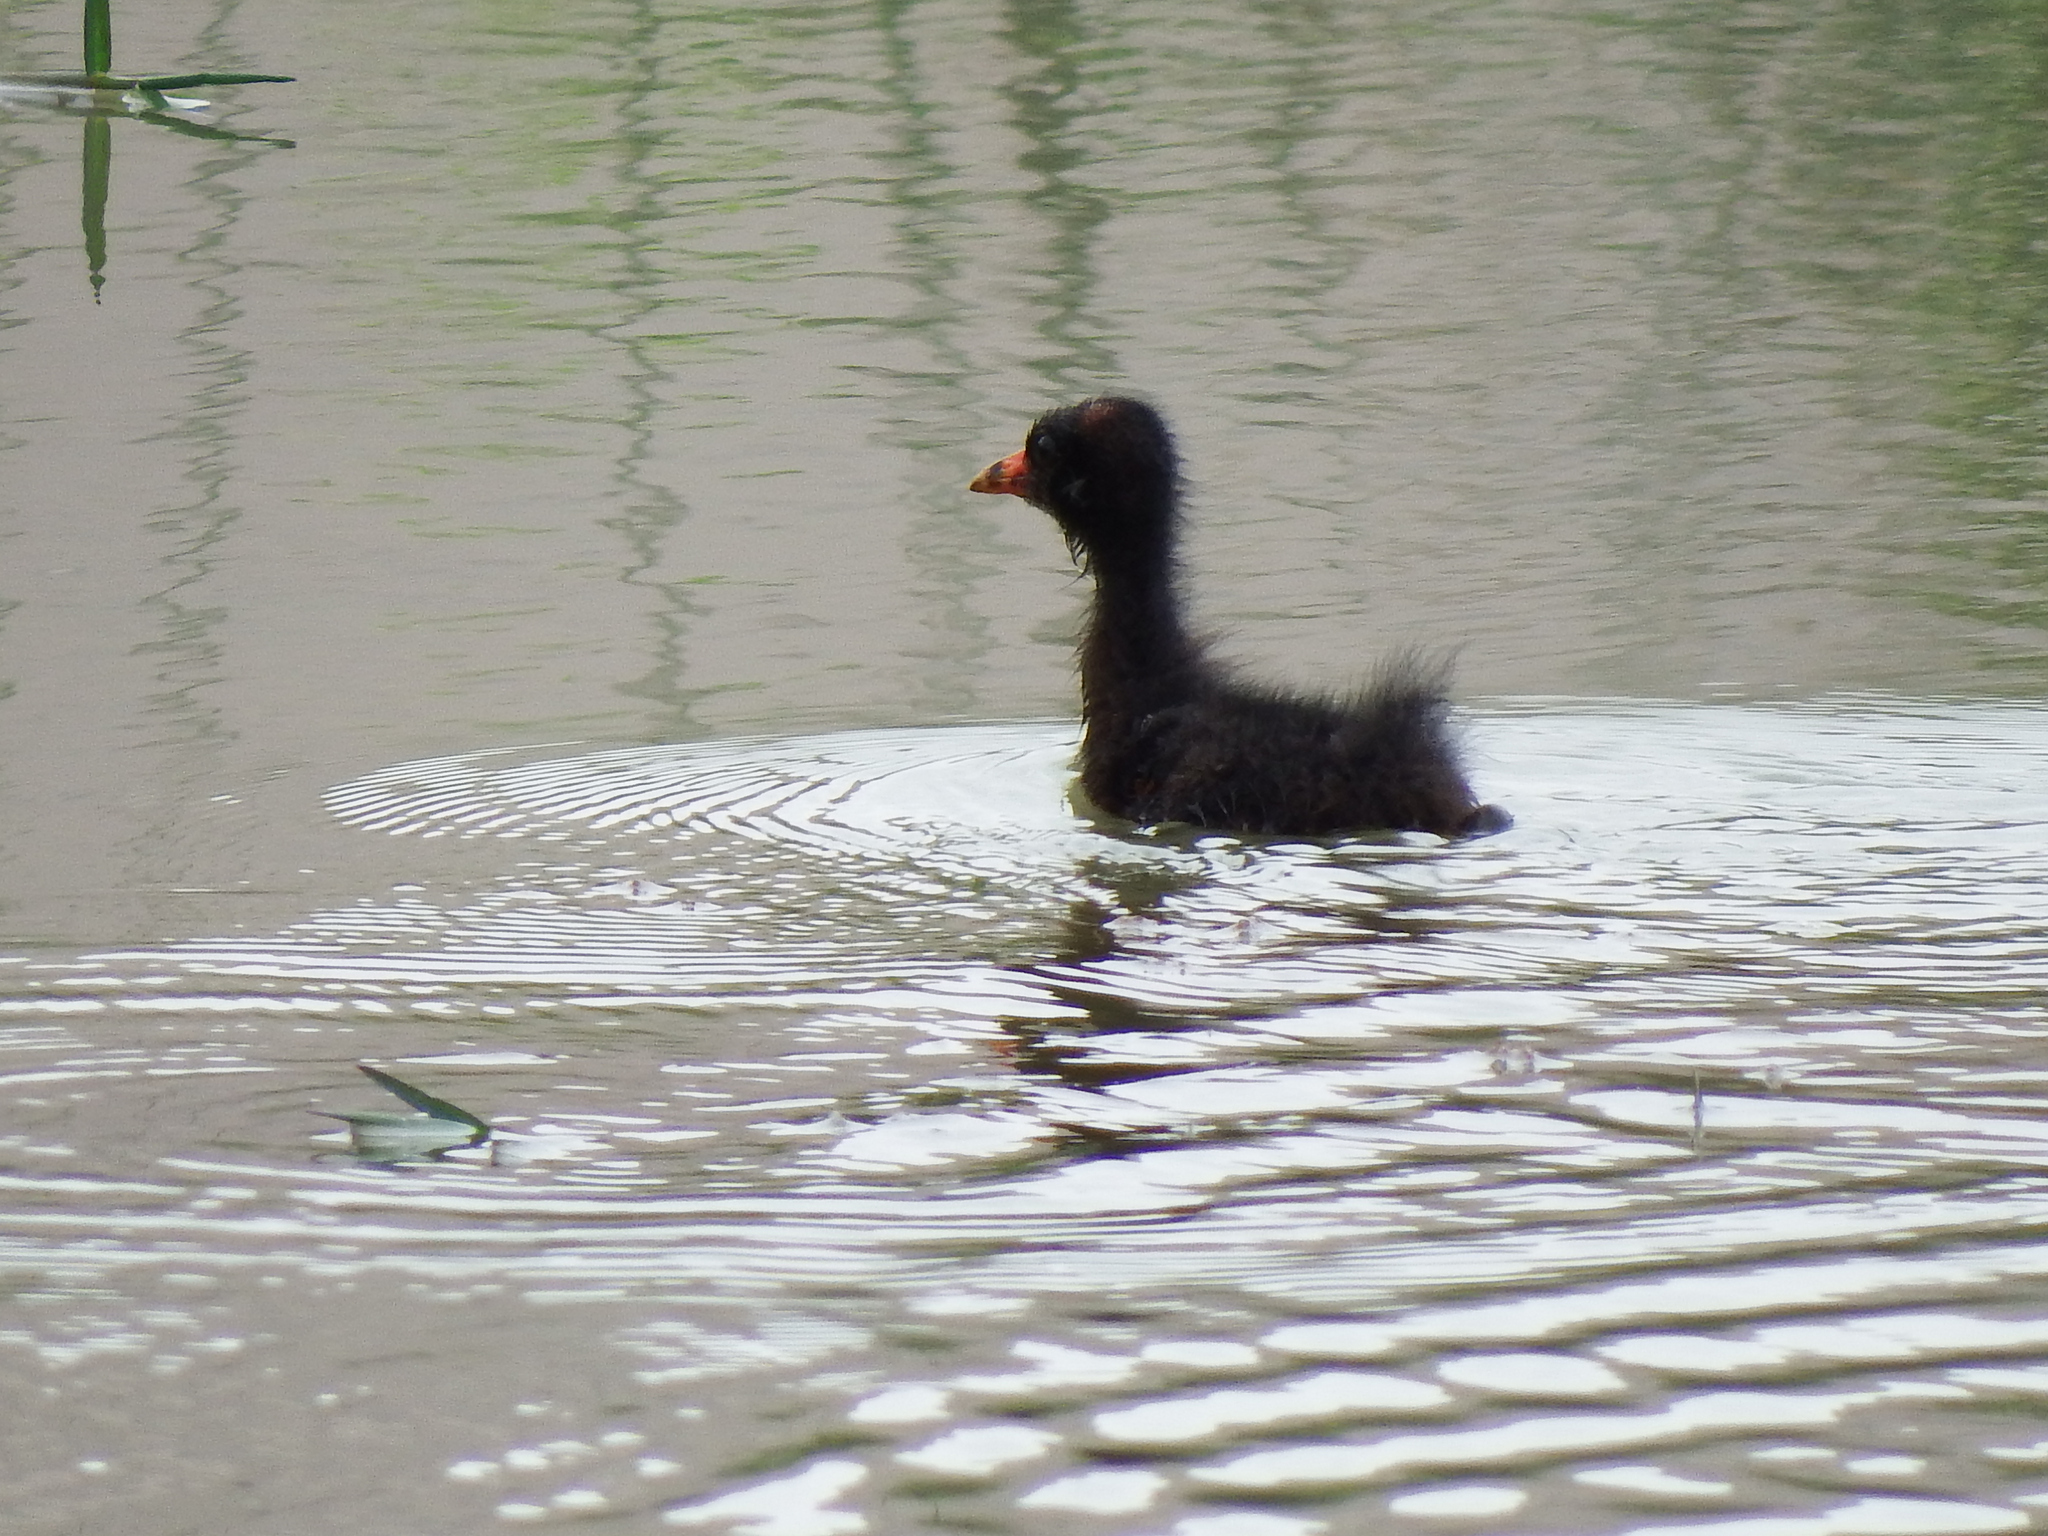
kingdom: Animalia
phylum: Chordata
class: Aves
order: Gruiformes
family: Rallidae
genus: Gallinula
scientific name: Gallinula chloropus
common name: Common moorhen
